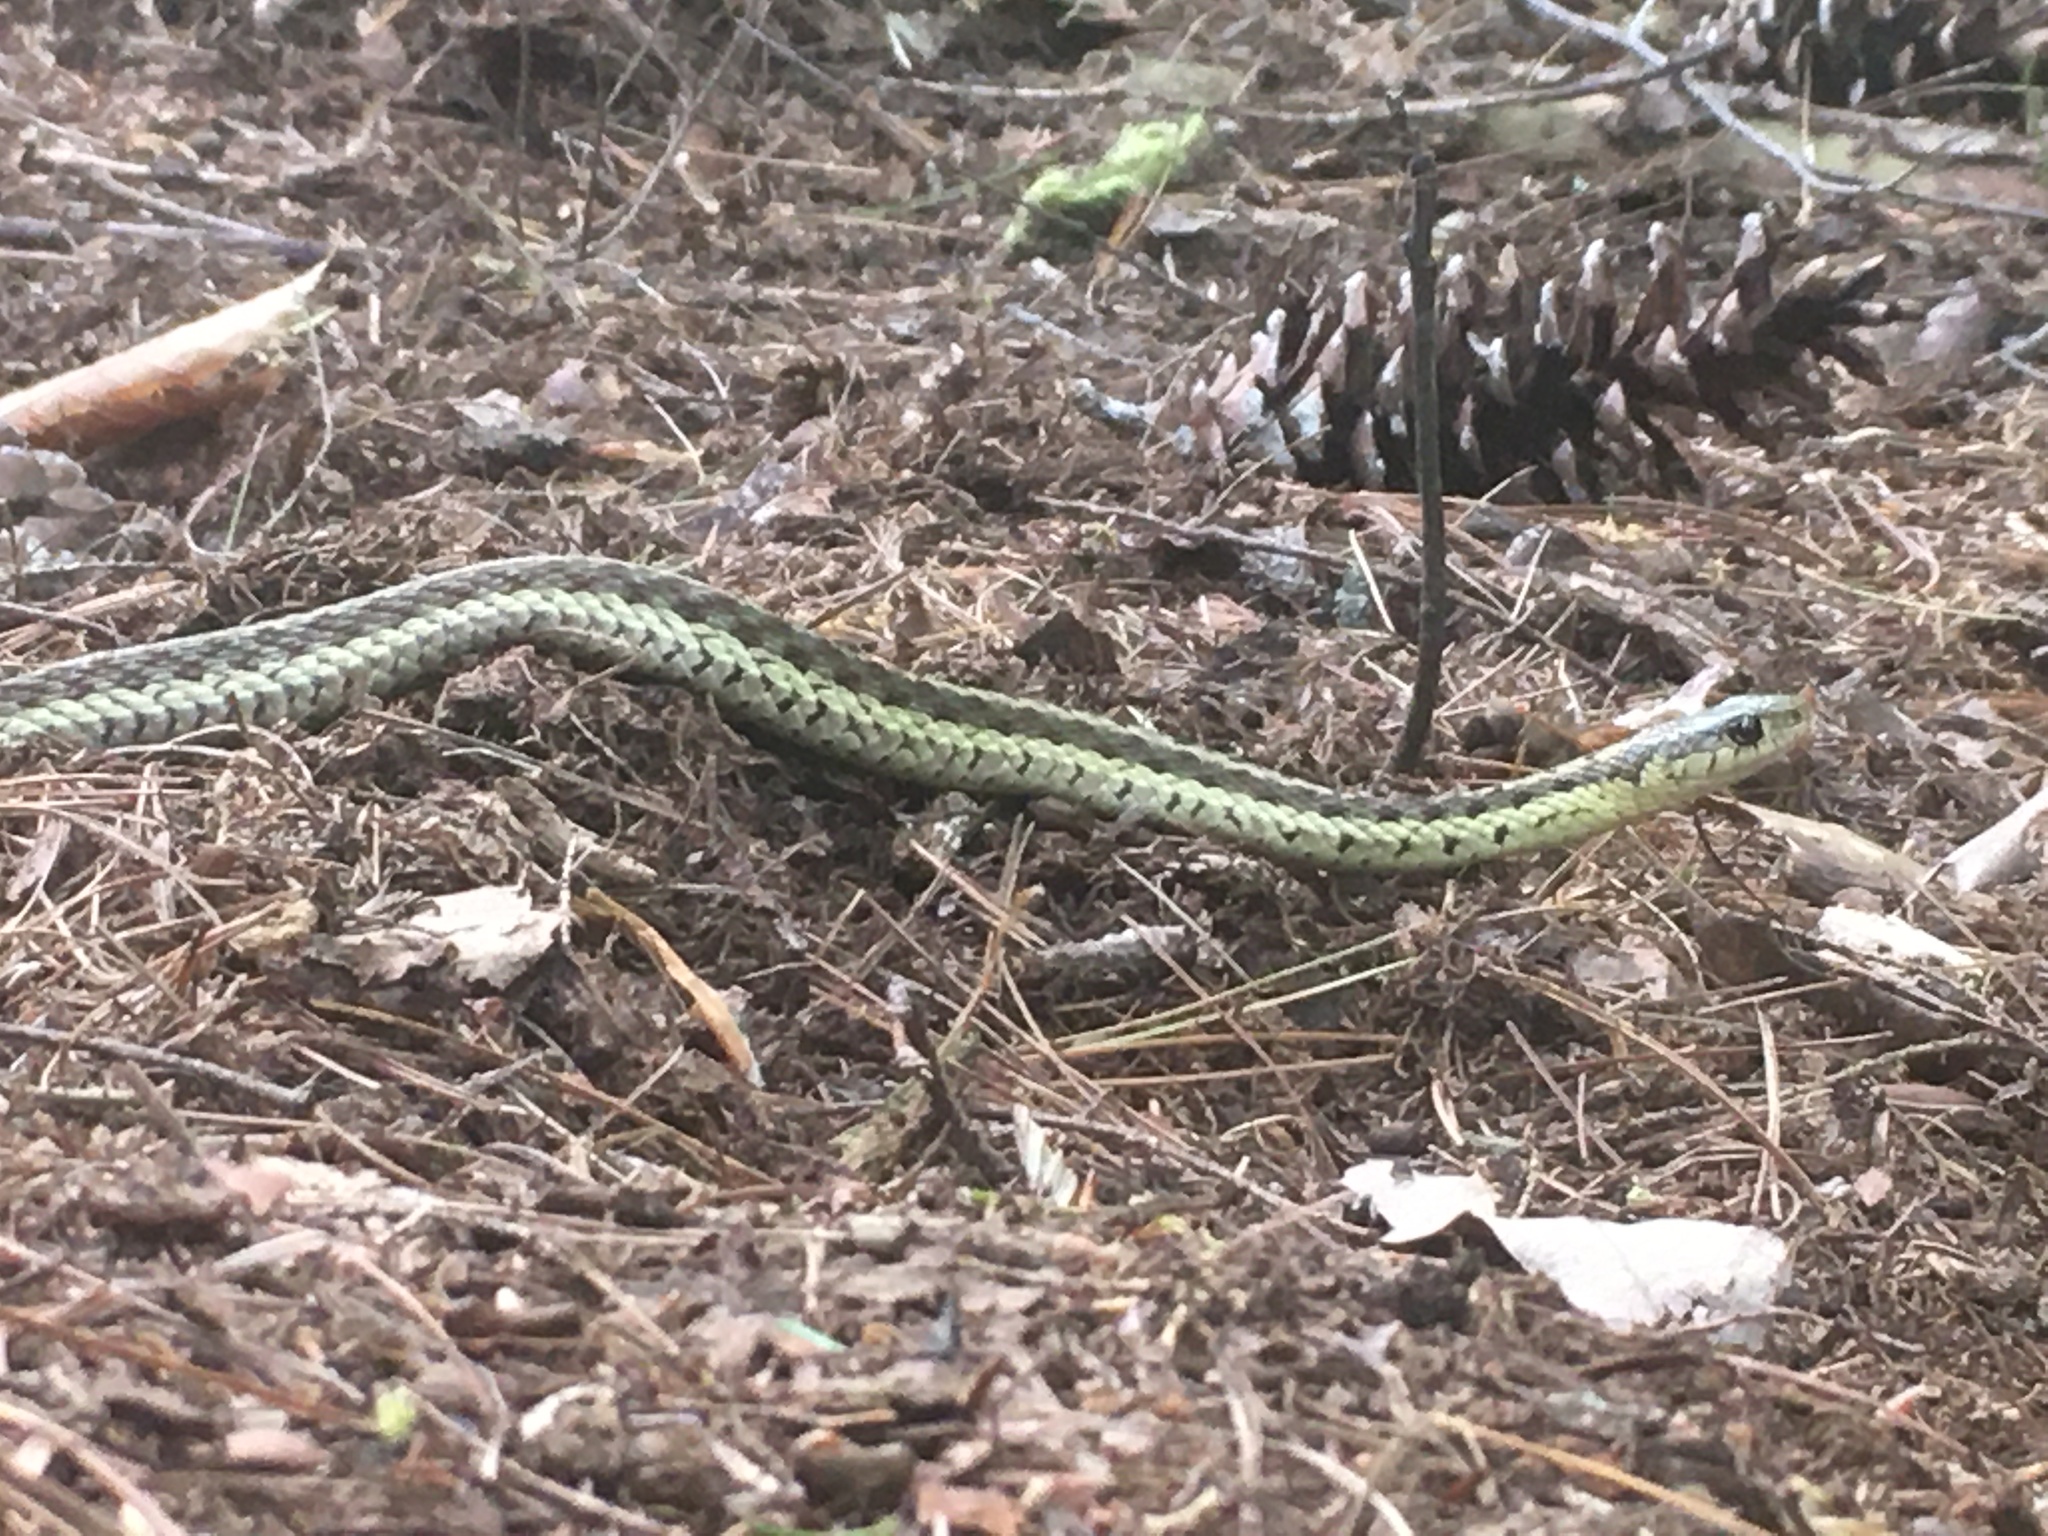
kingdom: Animalia
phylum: Chordata
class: Squamata
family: Colubridae
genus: Thamnophis
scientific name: Thamnophis sirtalis
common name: Common garter snake
